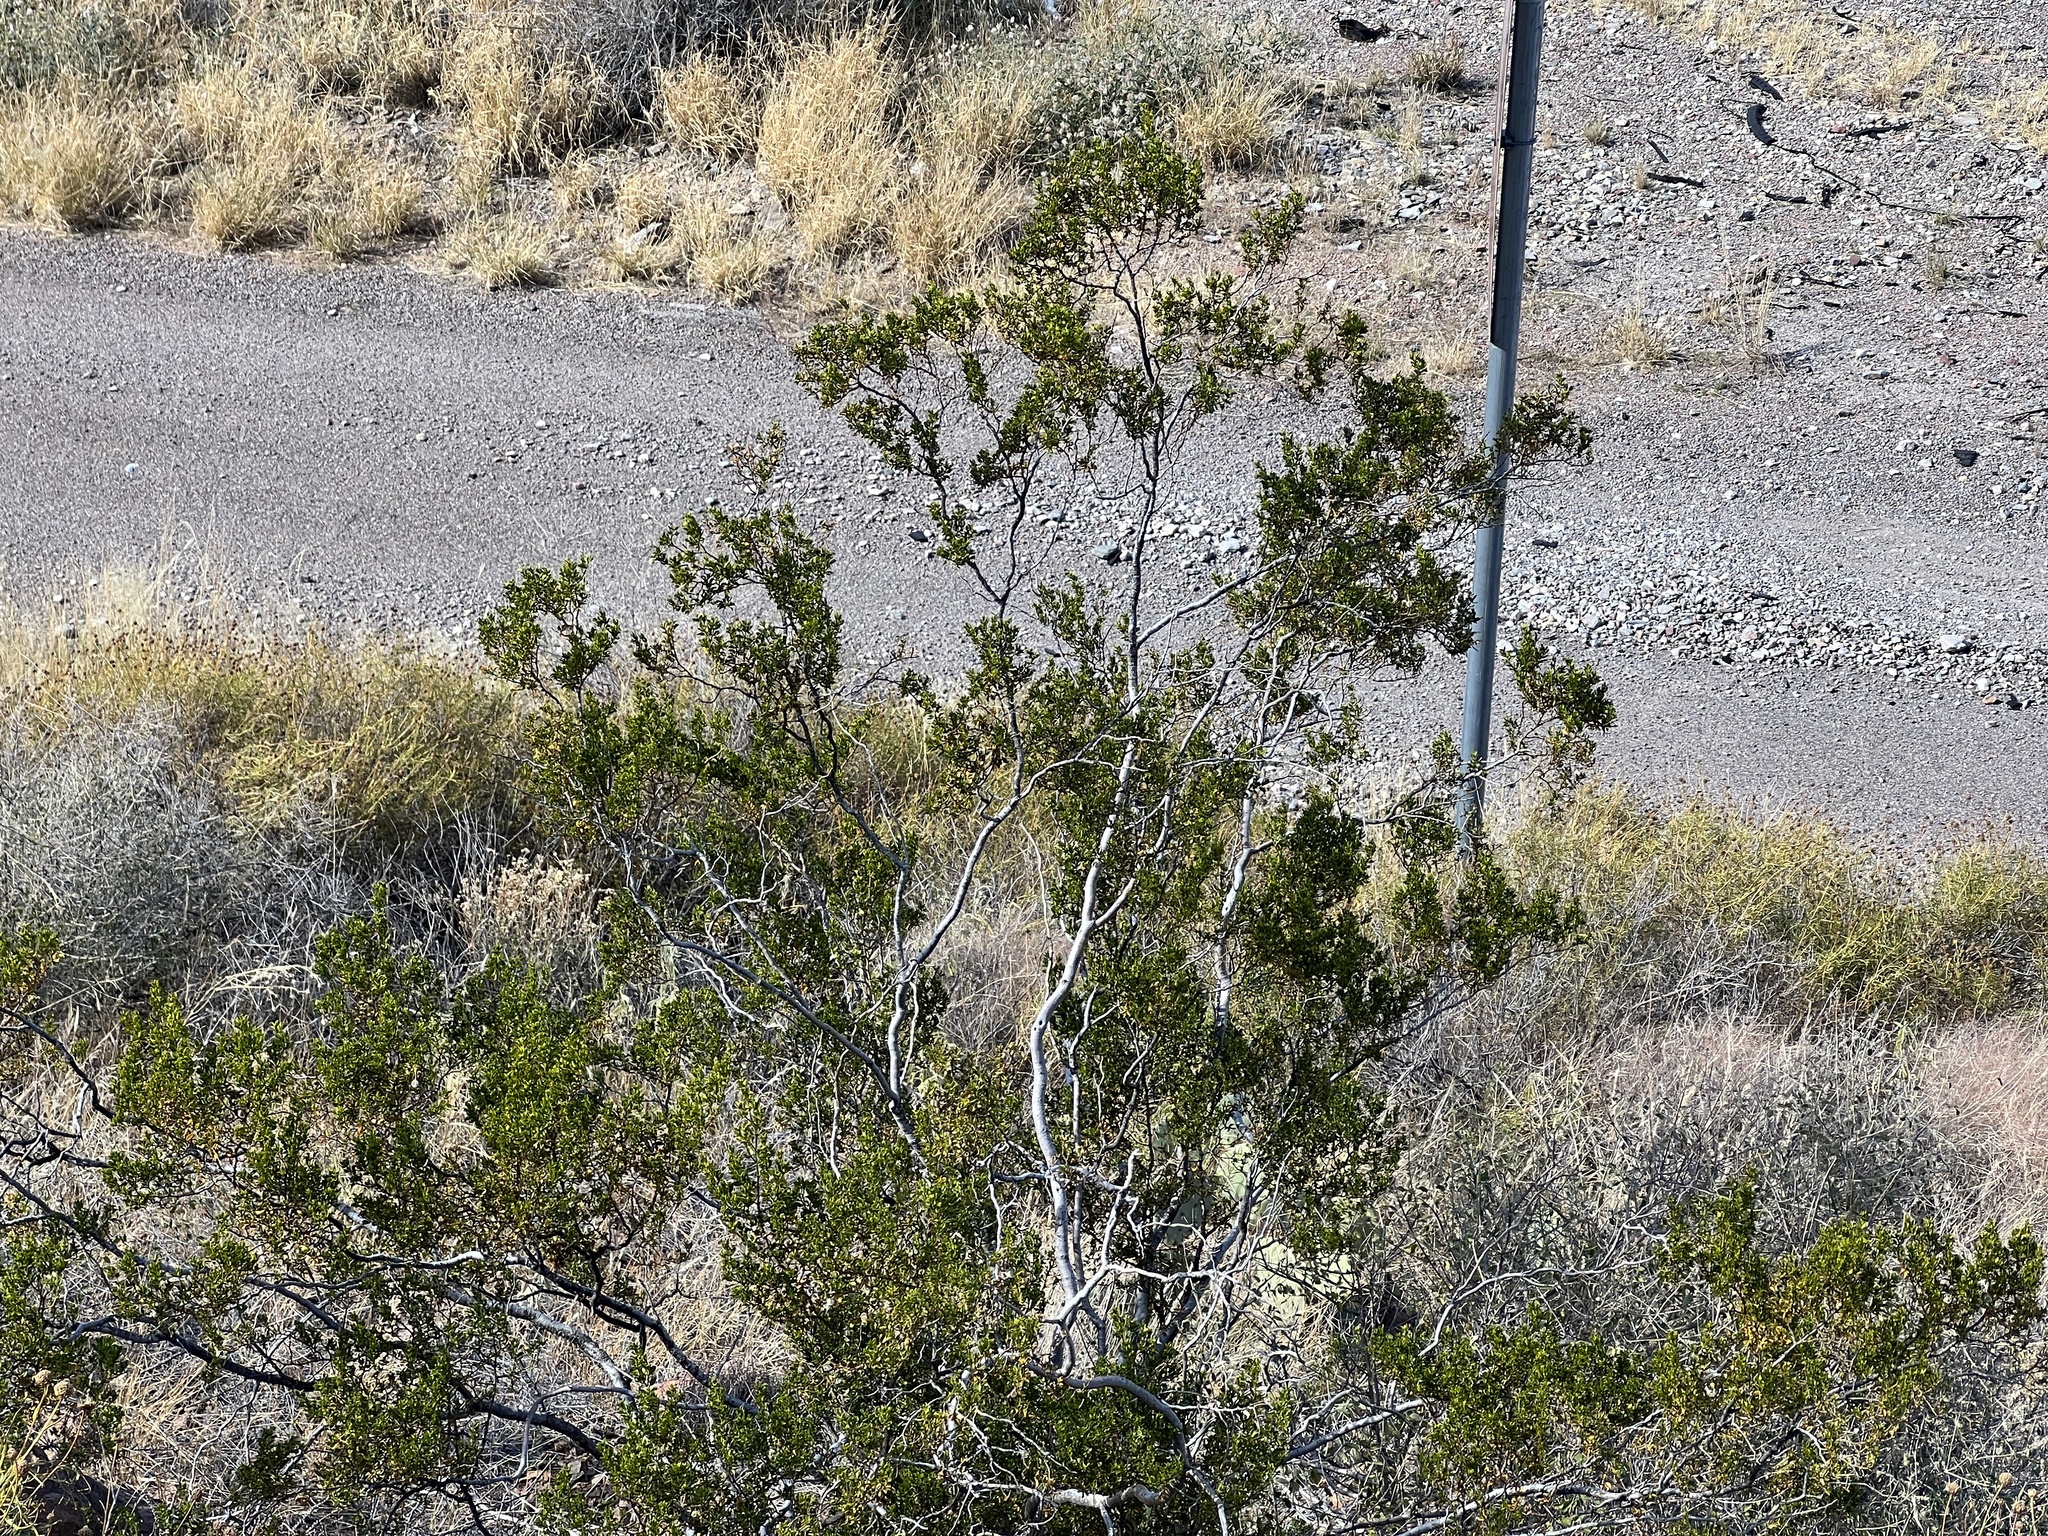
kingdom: Plantae
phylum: Tracheophyta
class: Magnoliopsida
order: Zygophyllales
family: Zygophyllaceae
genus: Larrea
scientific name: Larrea tridentata
